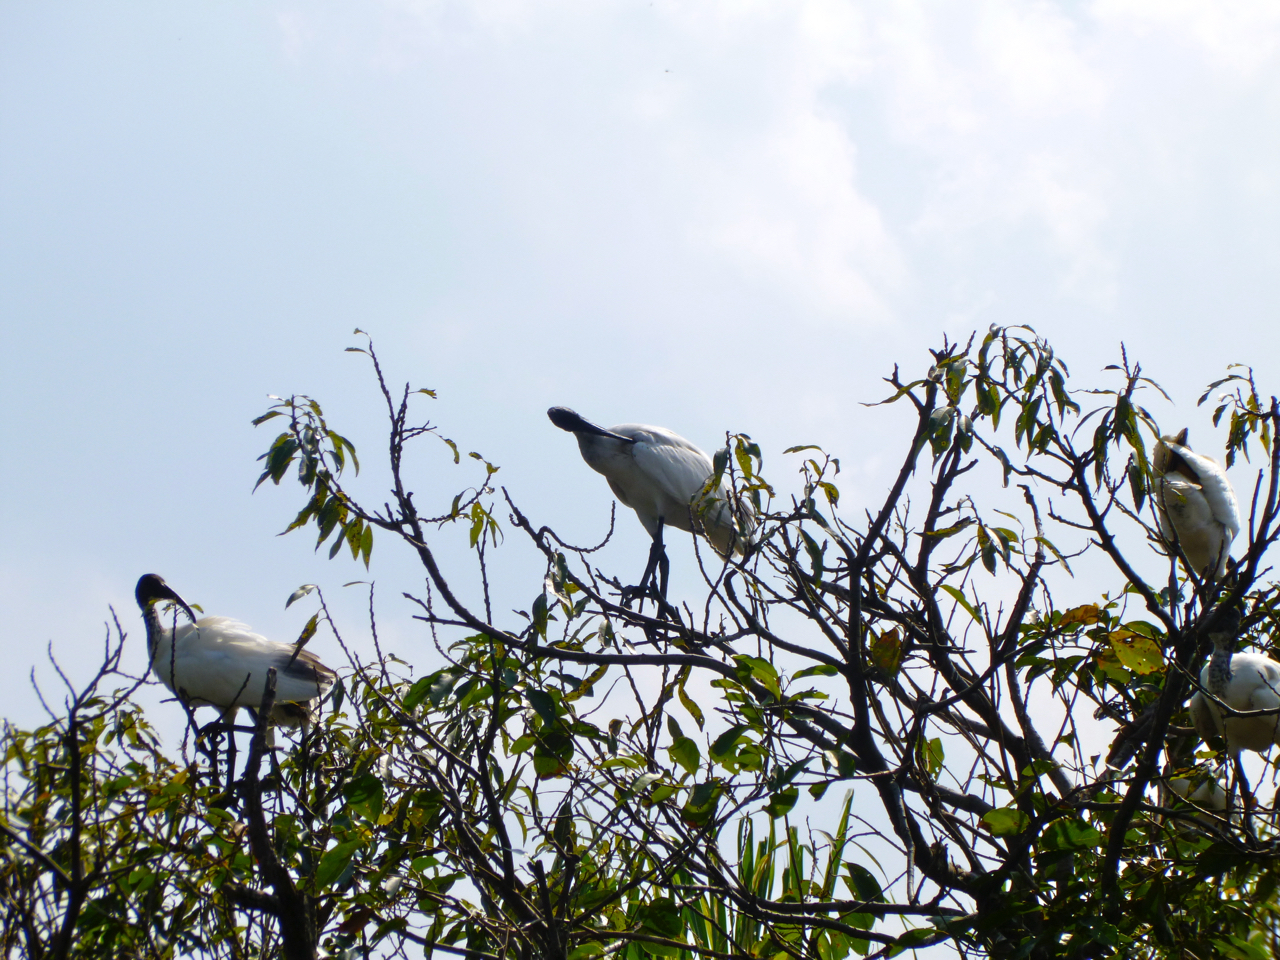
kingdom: Animalia
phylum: Chordata
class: Aves
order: Pelecaniformes
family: Threskiornithidae
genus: Threskiornis
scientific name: Threskiornis melanocephalus
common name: Black-headed ibis
